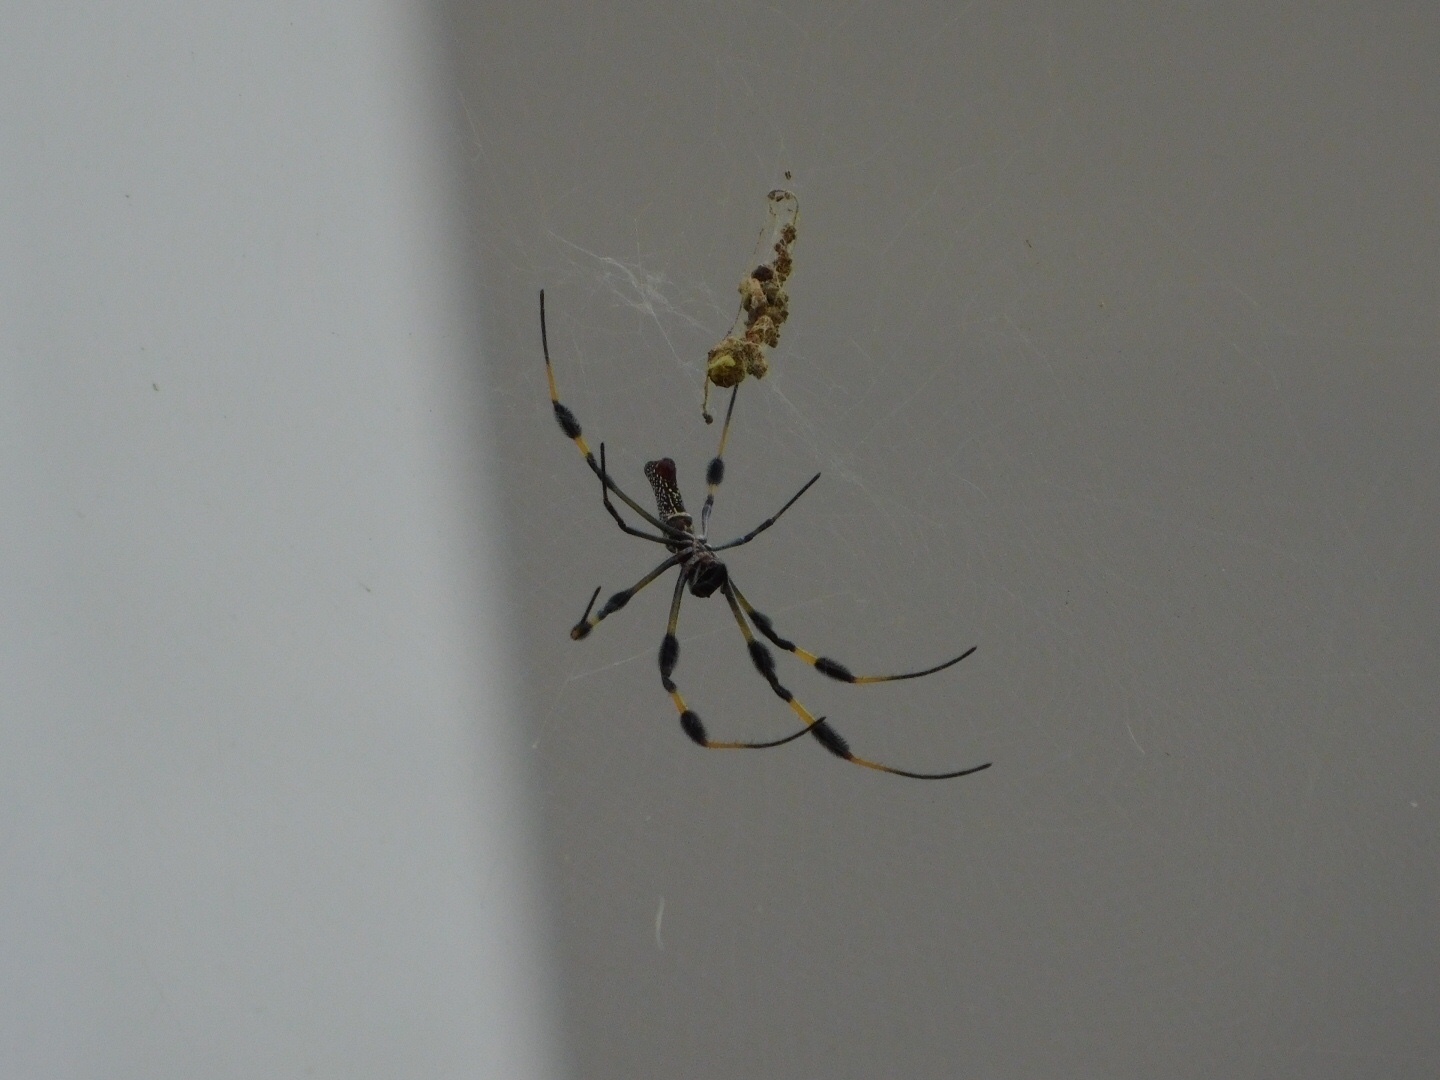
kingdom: Animalia
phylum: Arthropoda
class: Arachnida
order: Araneae
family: Araneidae
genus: Trichonephila
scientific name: Trichonephila clavipes
